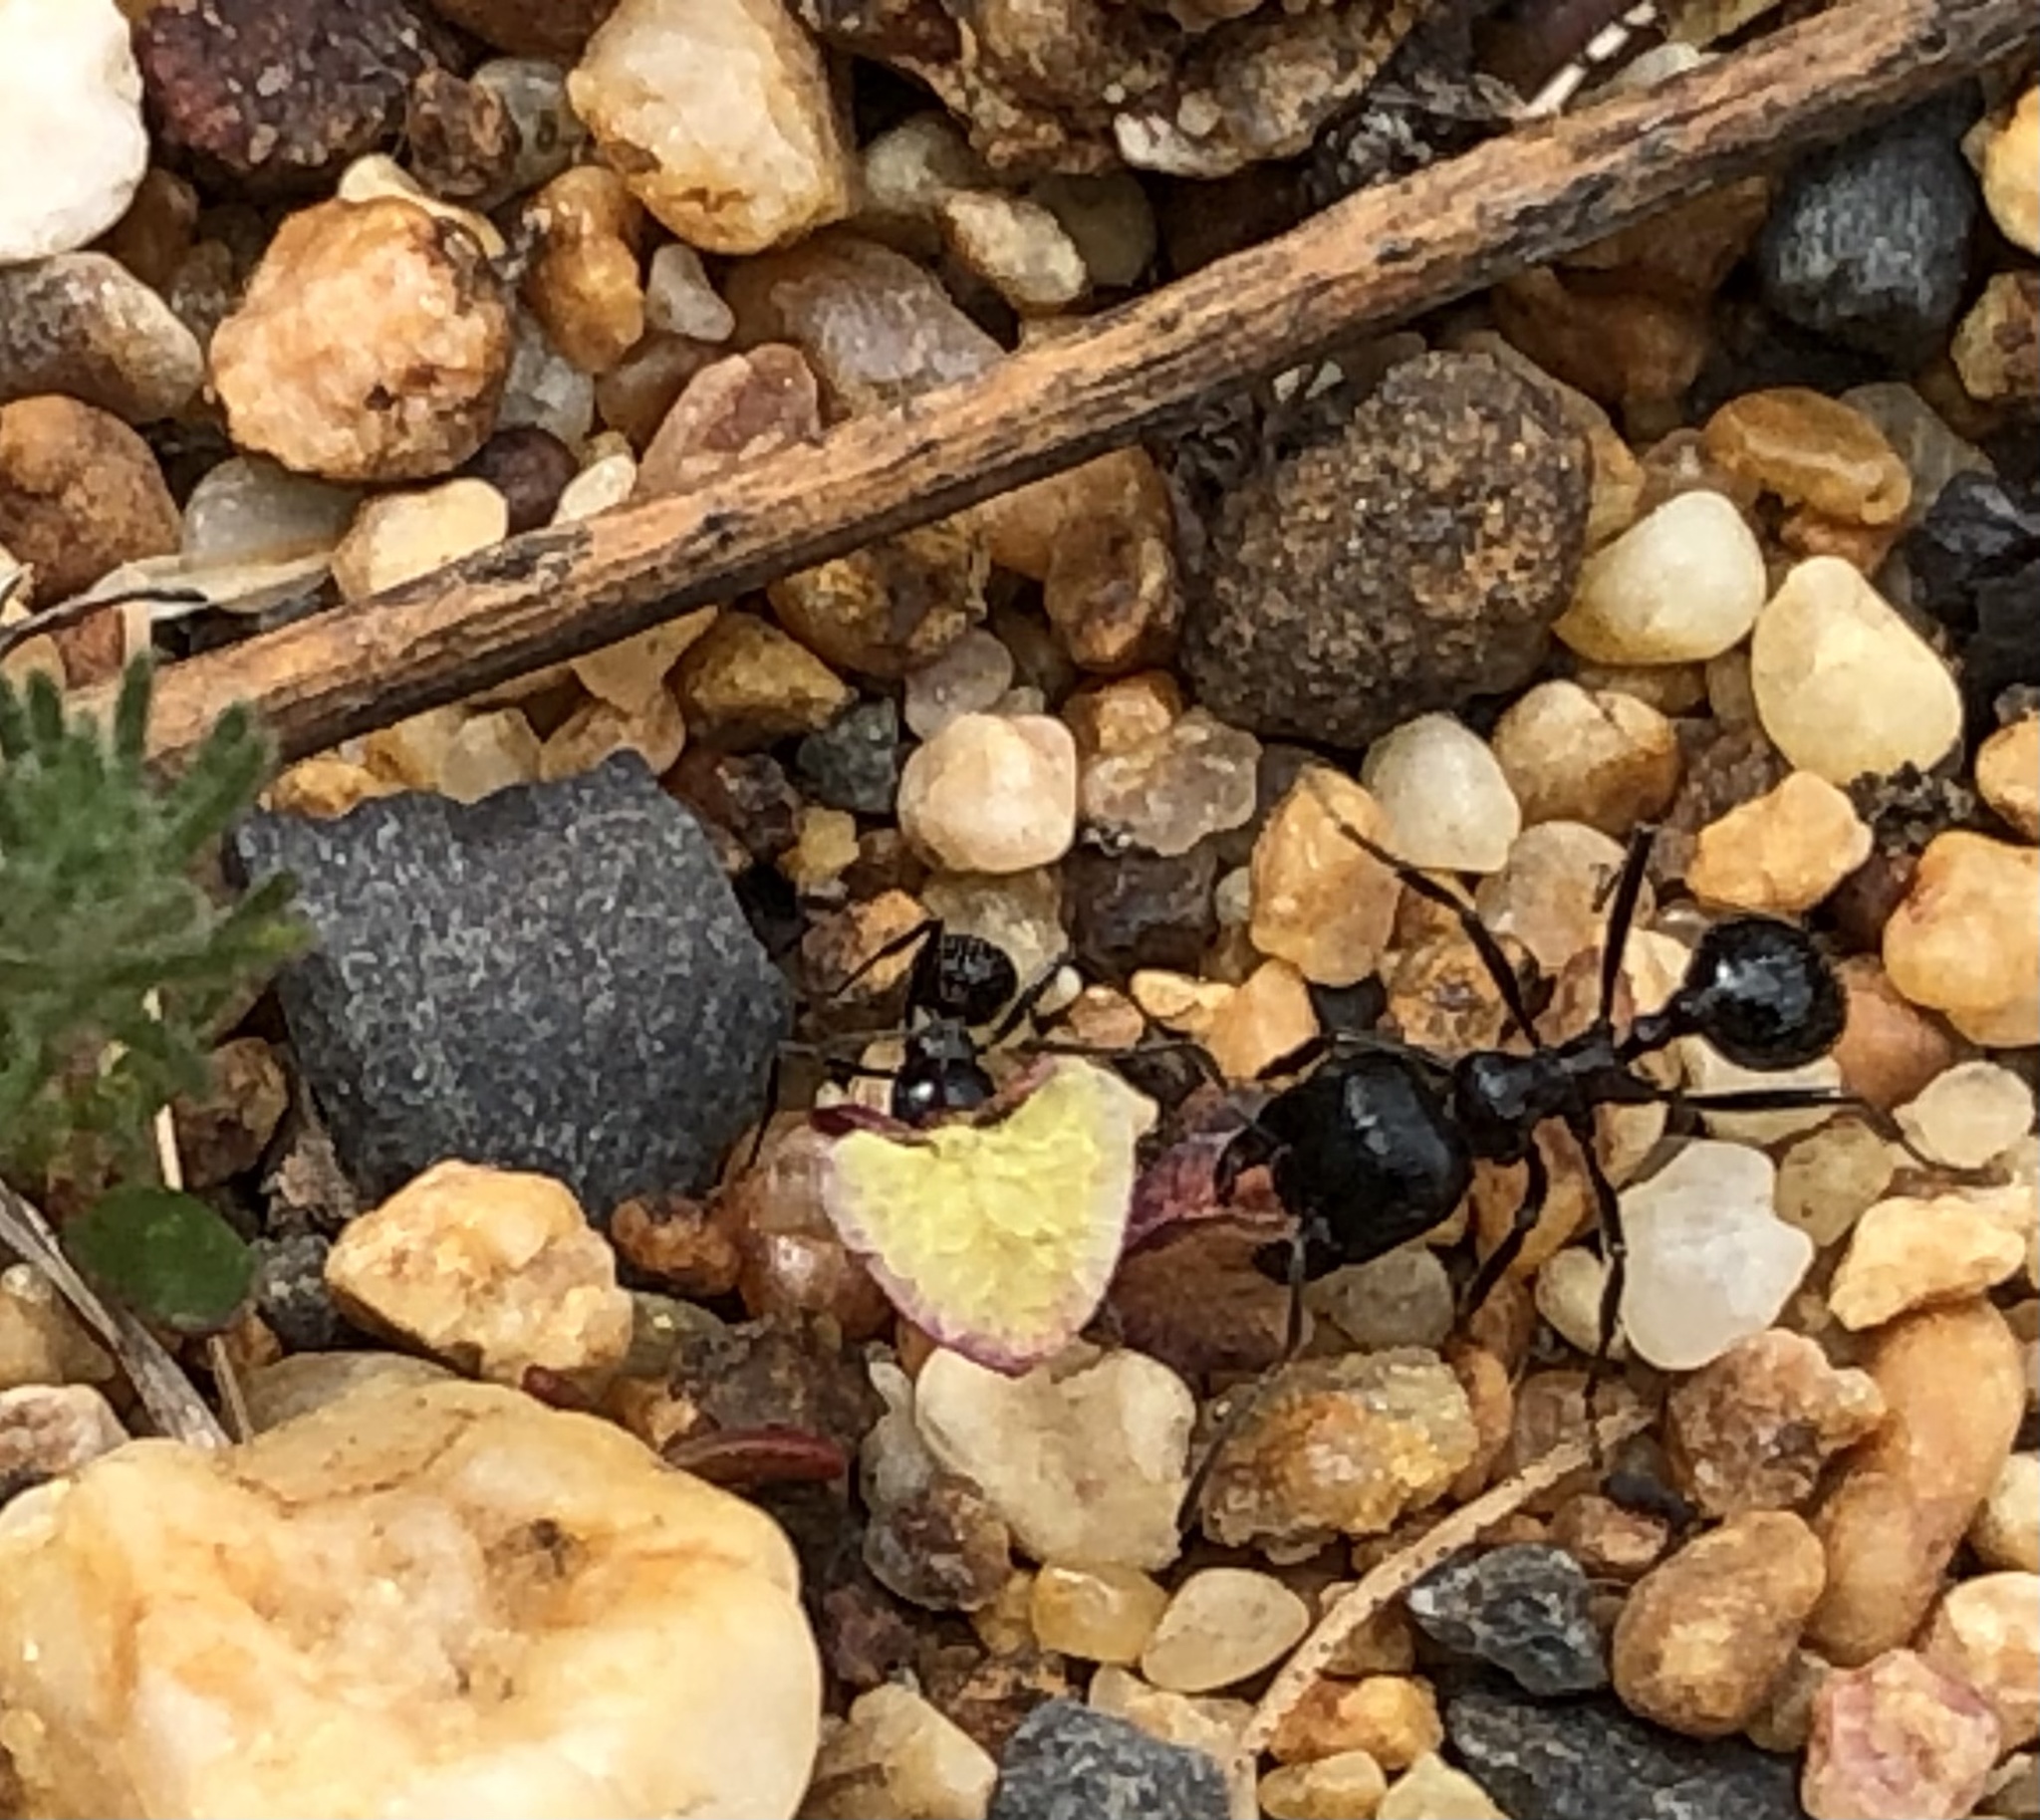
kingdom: Animalia
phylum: Arthropoda
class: Insecta
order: Hymenoptera
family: Formicidae
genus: Messor
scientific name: Messor capensis
